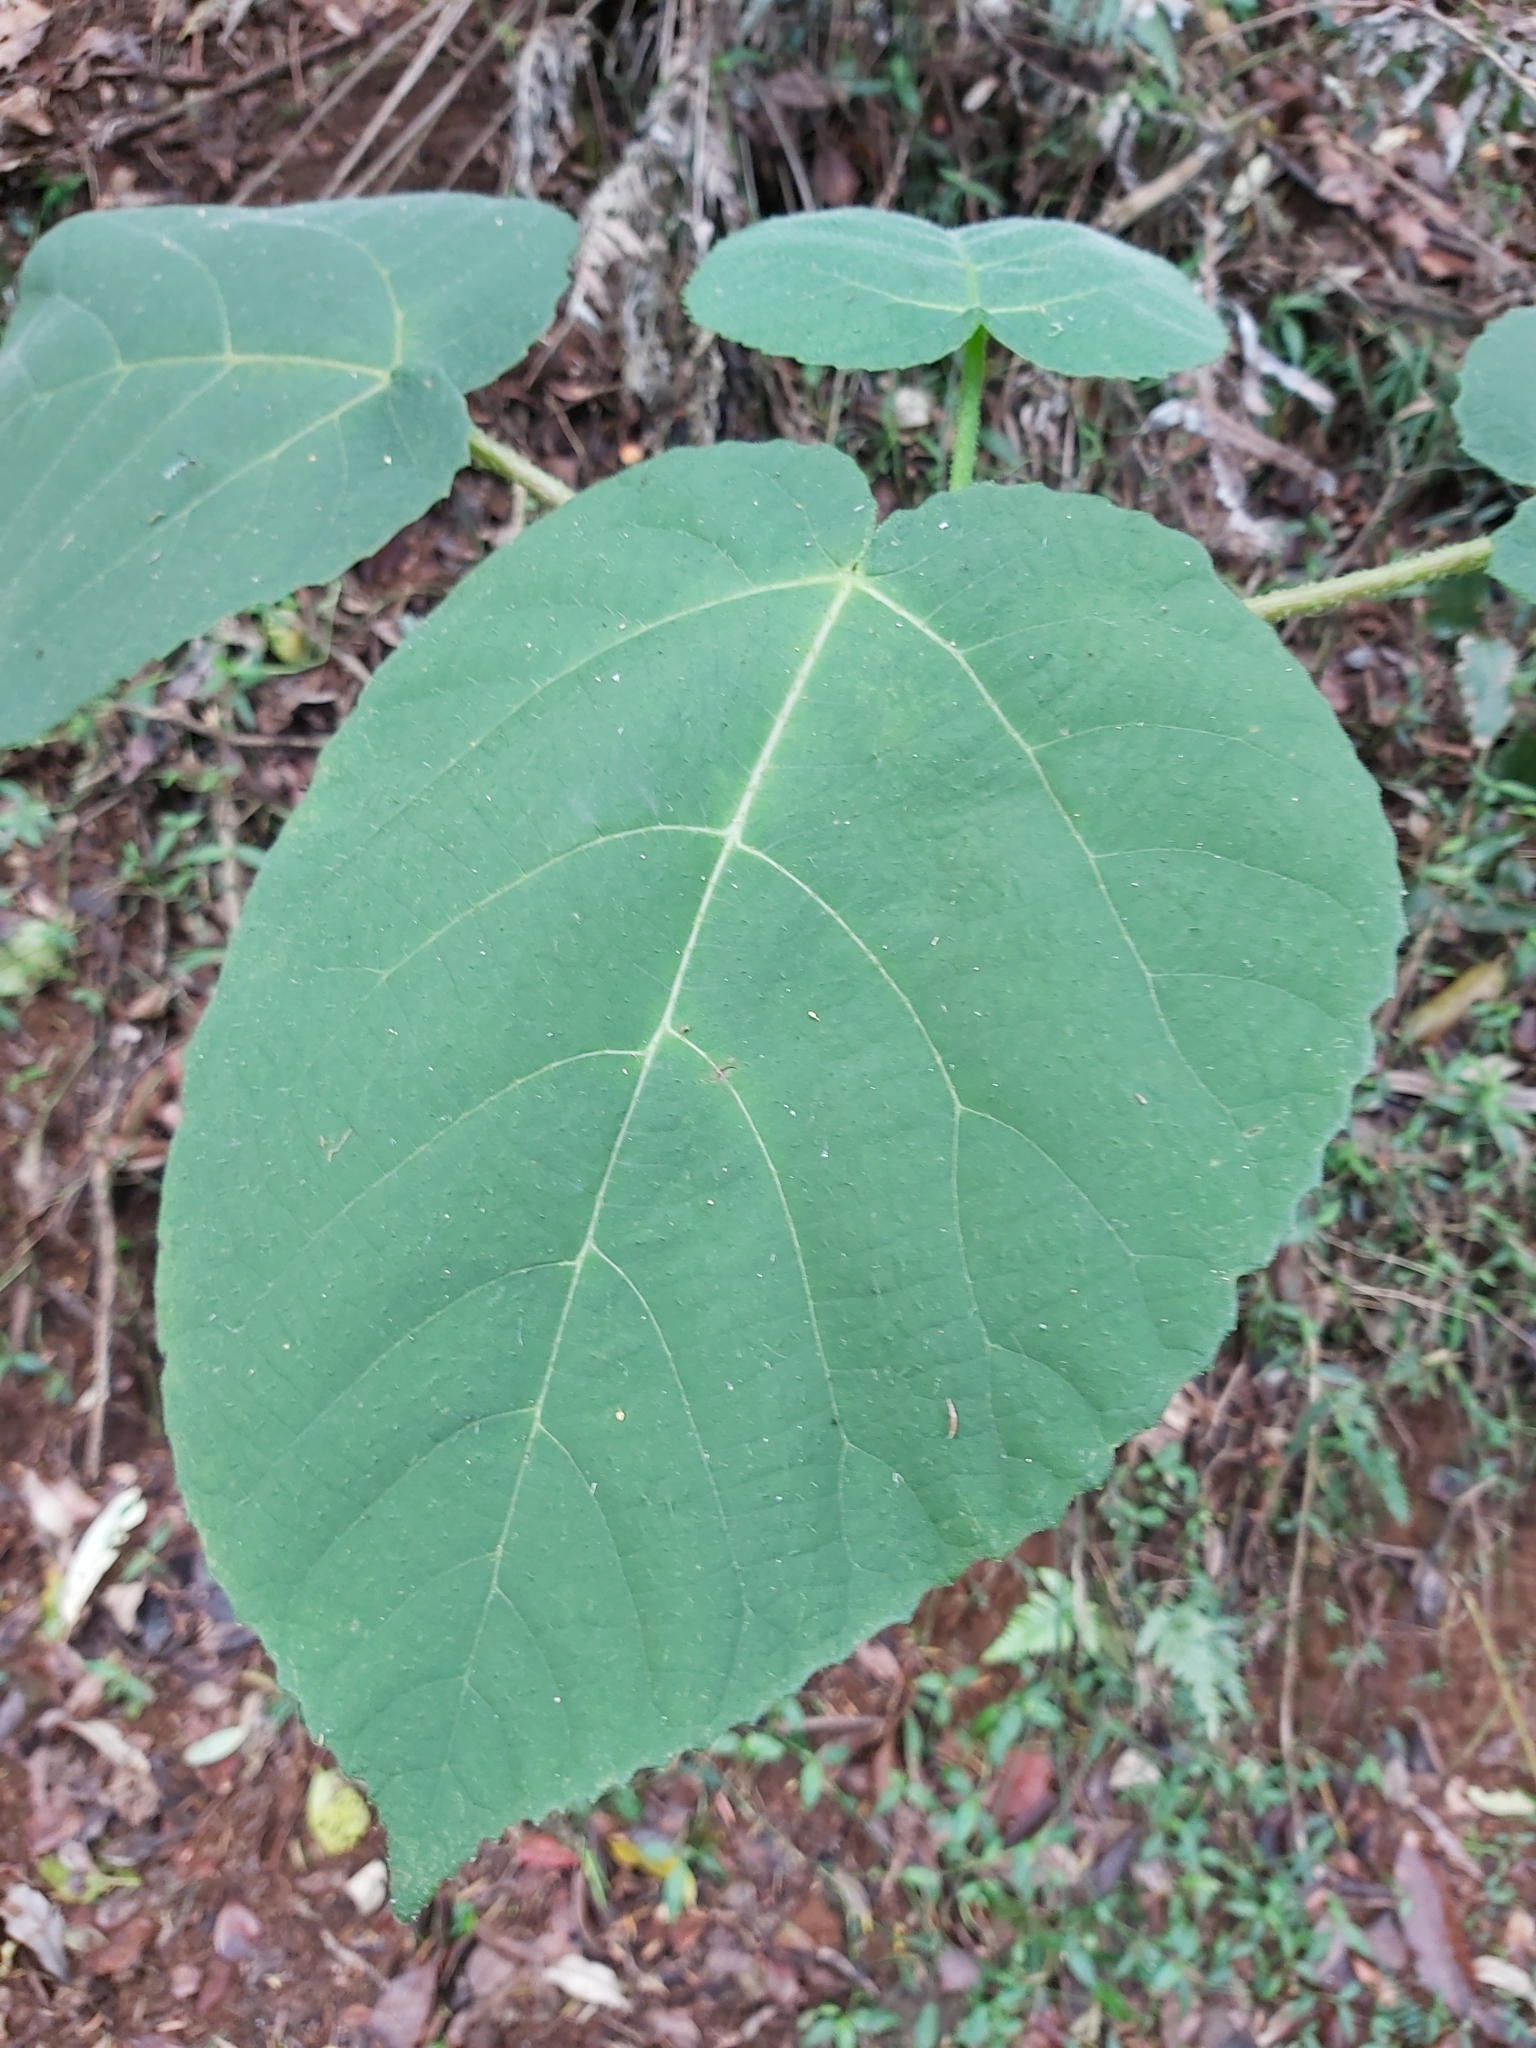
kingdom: Plantae
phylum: Tracheophyta
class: Magnoliopsida
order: Rosales
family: Urticaceae
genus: Dendrocnide
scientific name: Dendrocnide excelsa
